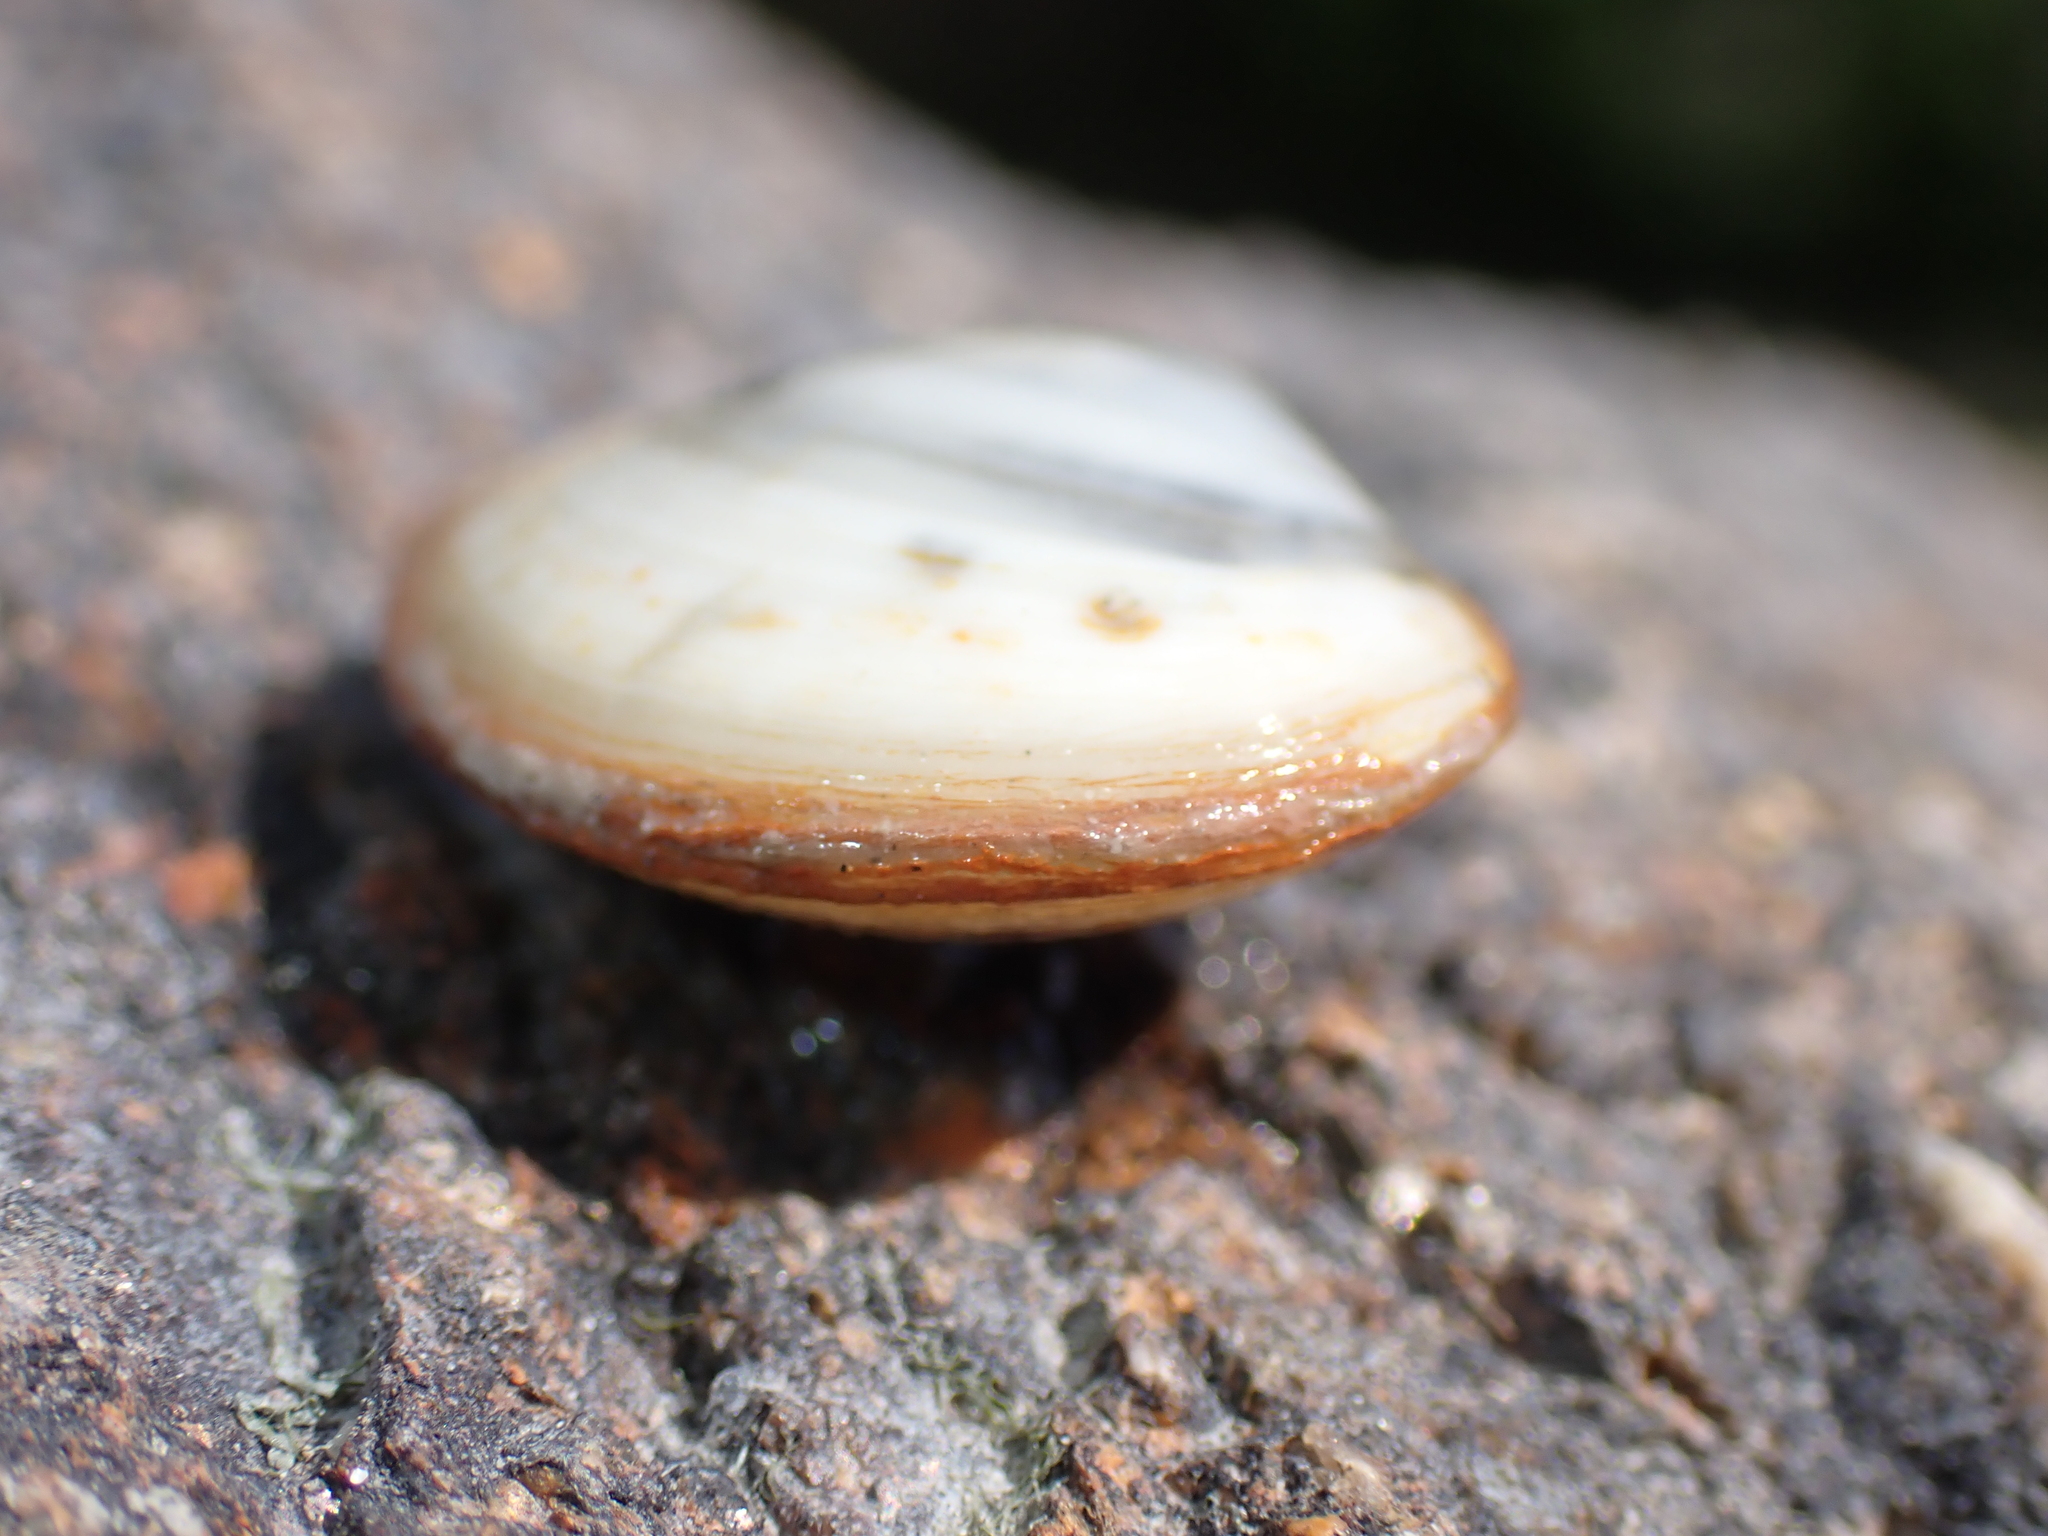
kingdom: Animalia
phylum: Mollusca
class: Bivalvia
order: Cardiida
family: Tellinidae
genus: Macoma
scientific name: Macoma balthica
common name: Baltic tellin
